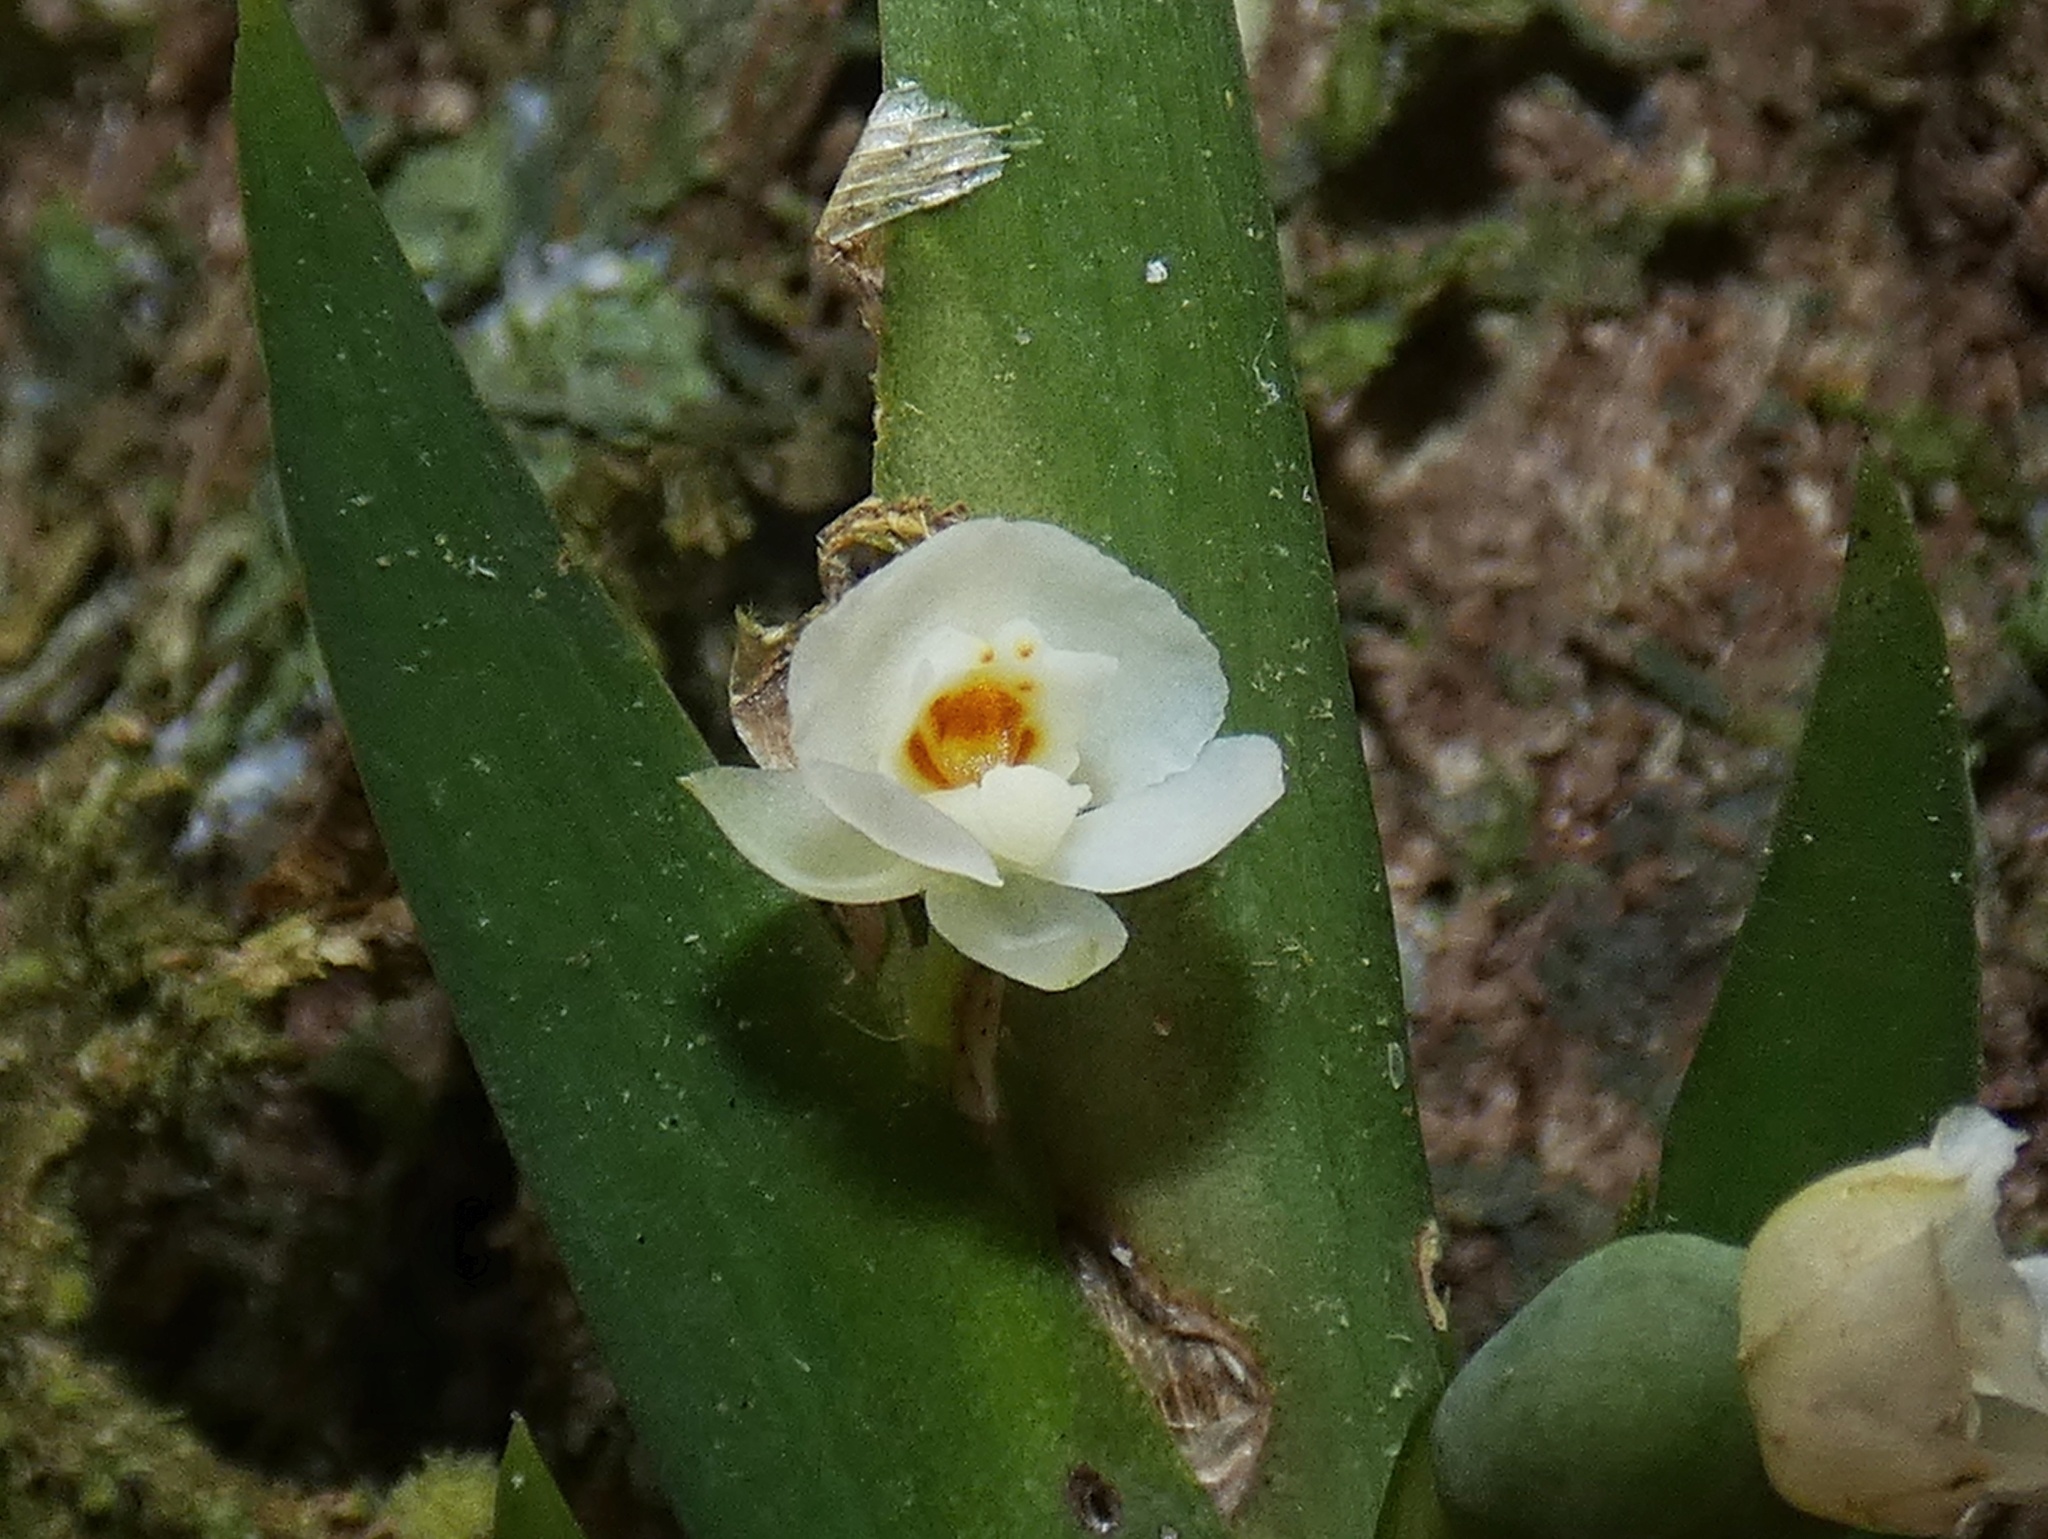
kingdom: Plantae
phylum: Tracheophyta
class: Liliopsida
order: Asparagales
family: Orchidaceae
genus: Lockhartia
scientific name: Lockhartia hercodonta
